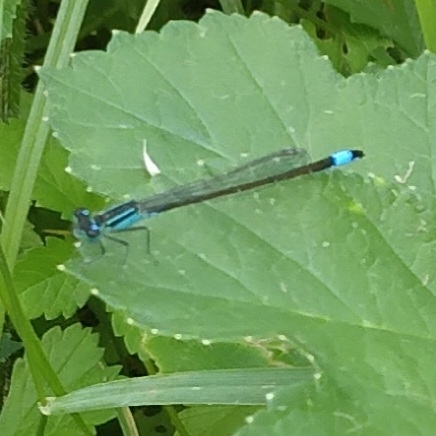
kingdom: Animalia
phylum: Arthropoda
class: Insecta
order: Odonata
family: Coenagrionidae
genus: Ischnura
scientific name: Ischnura elegans
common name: Blue-tailed damselfly
